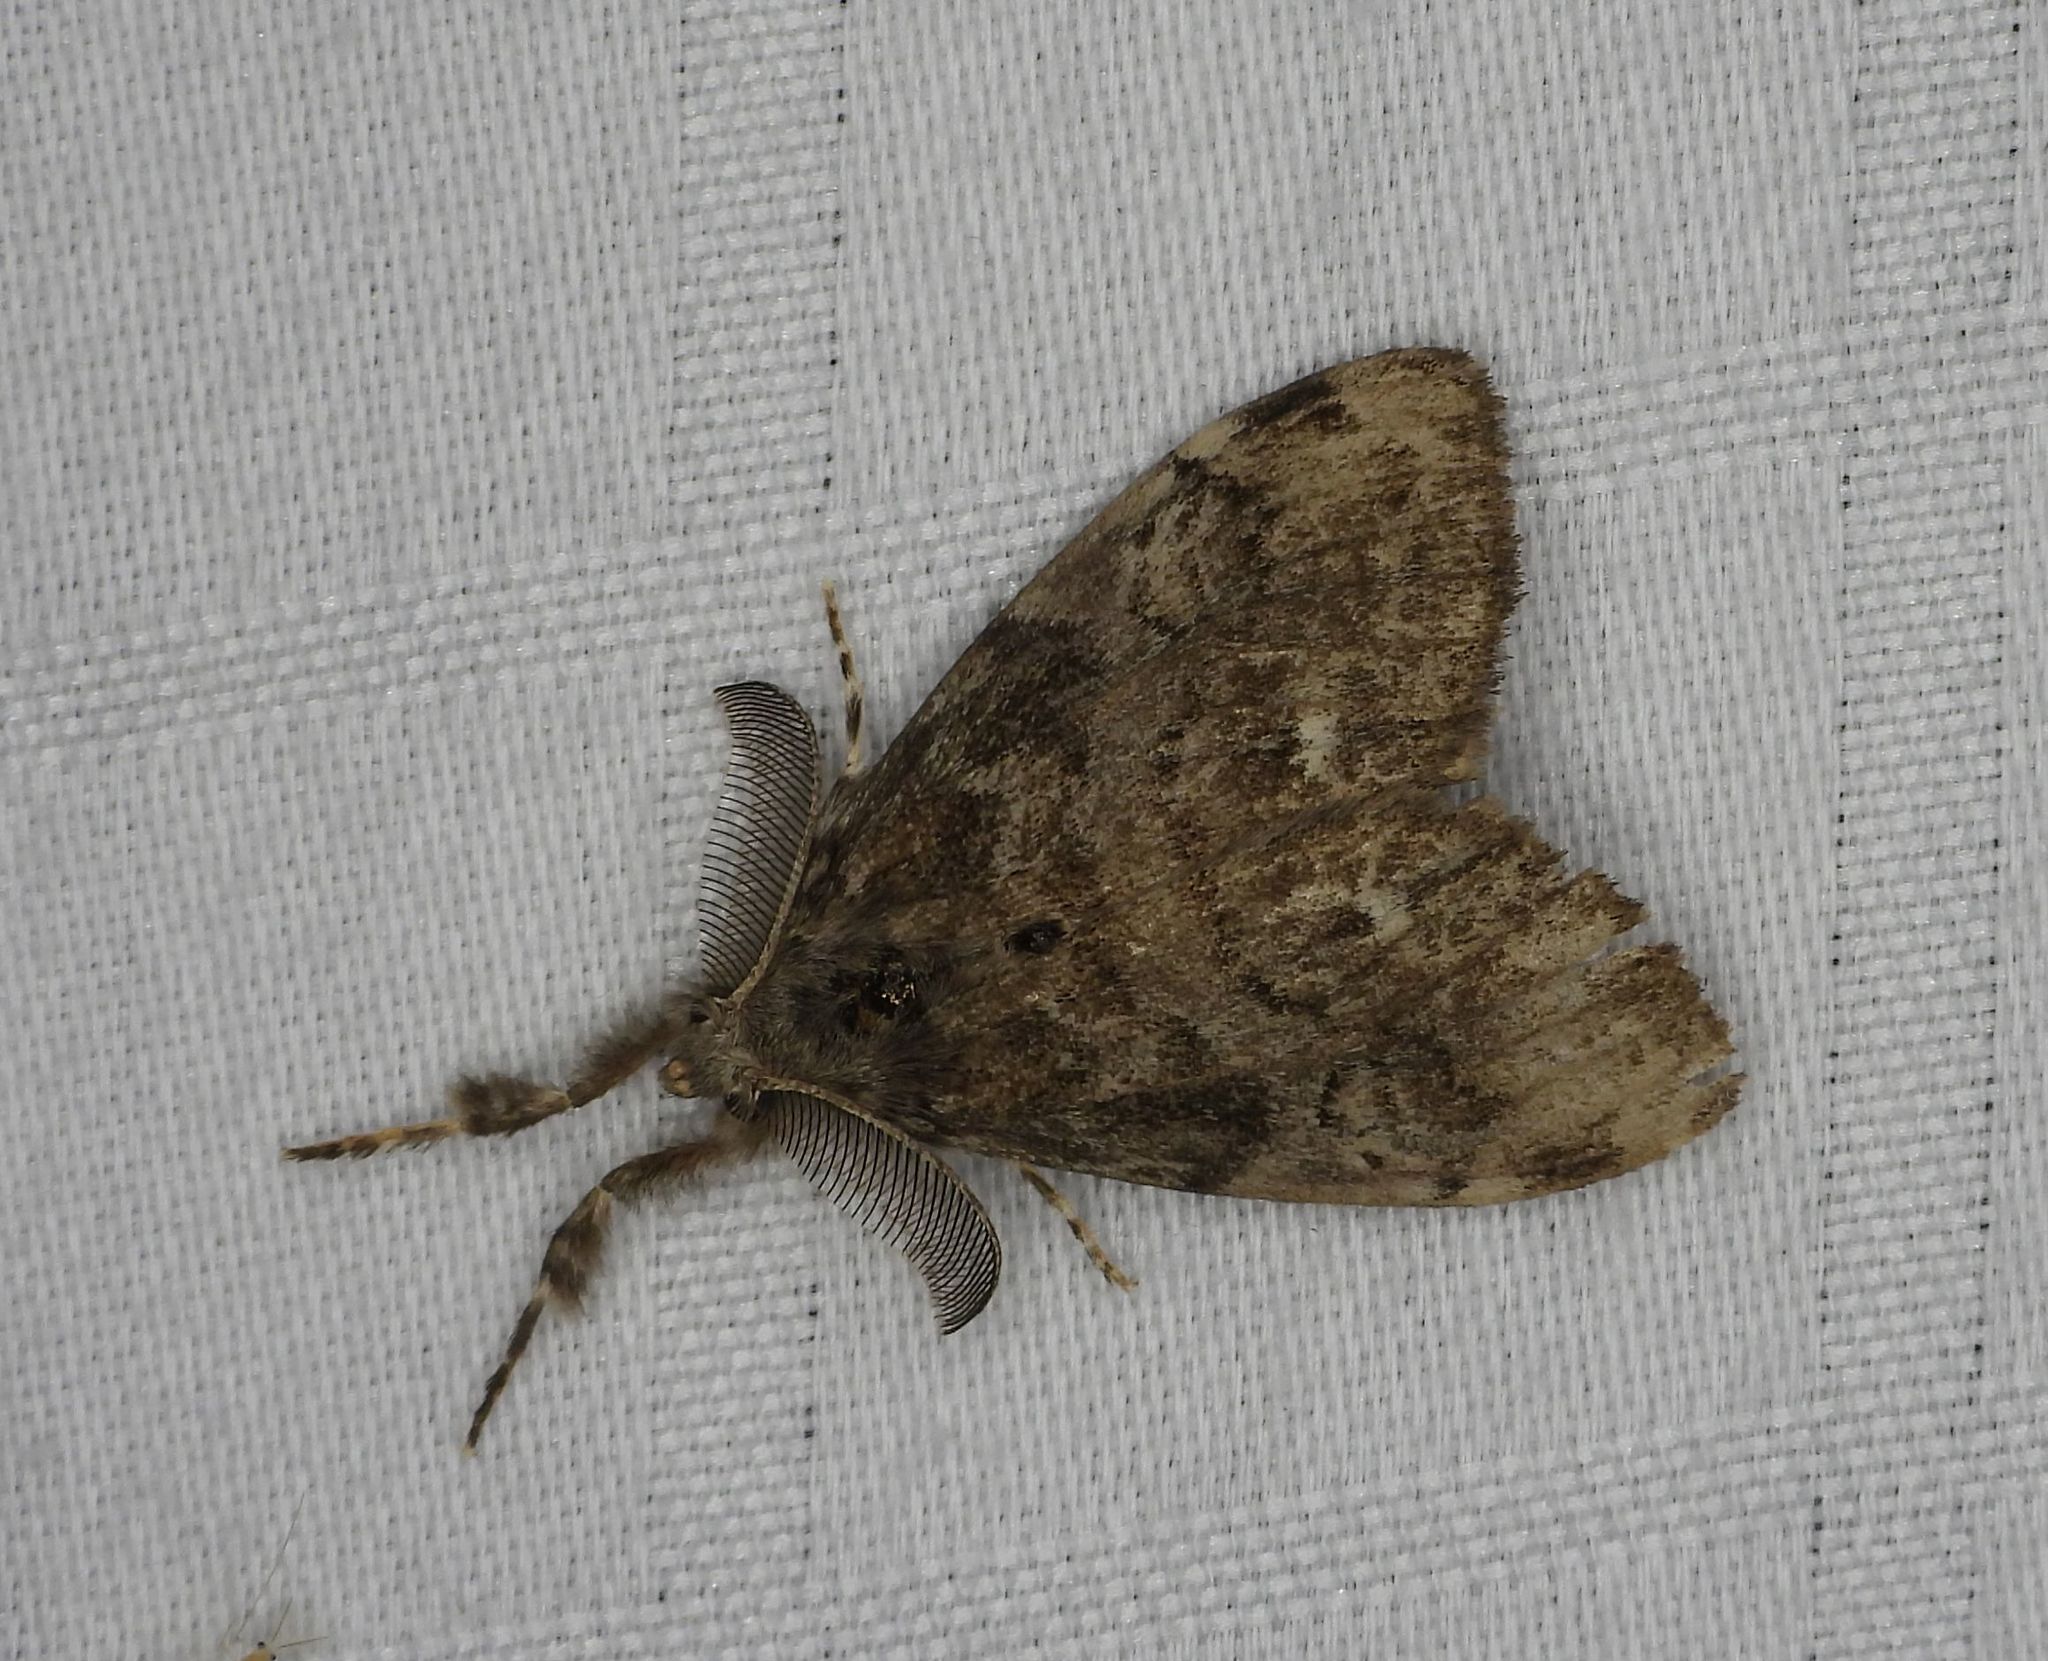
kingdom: Animalia
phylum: Arthropoda
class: Insecta
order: Lepidoptera
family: Erebidae
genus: Orgyia
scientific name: Orgyia leucostigma
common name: White-marked tussock moth
